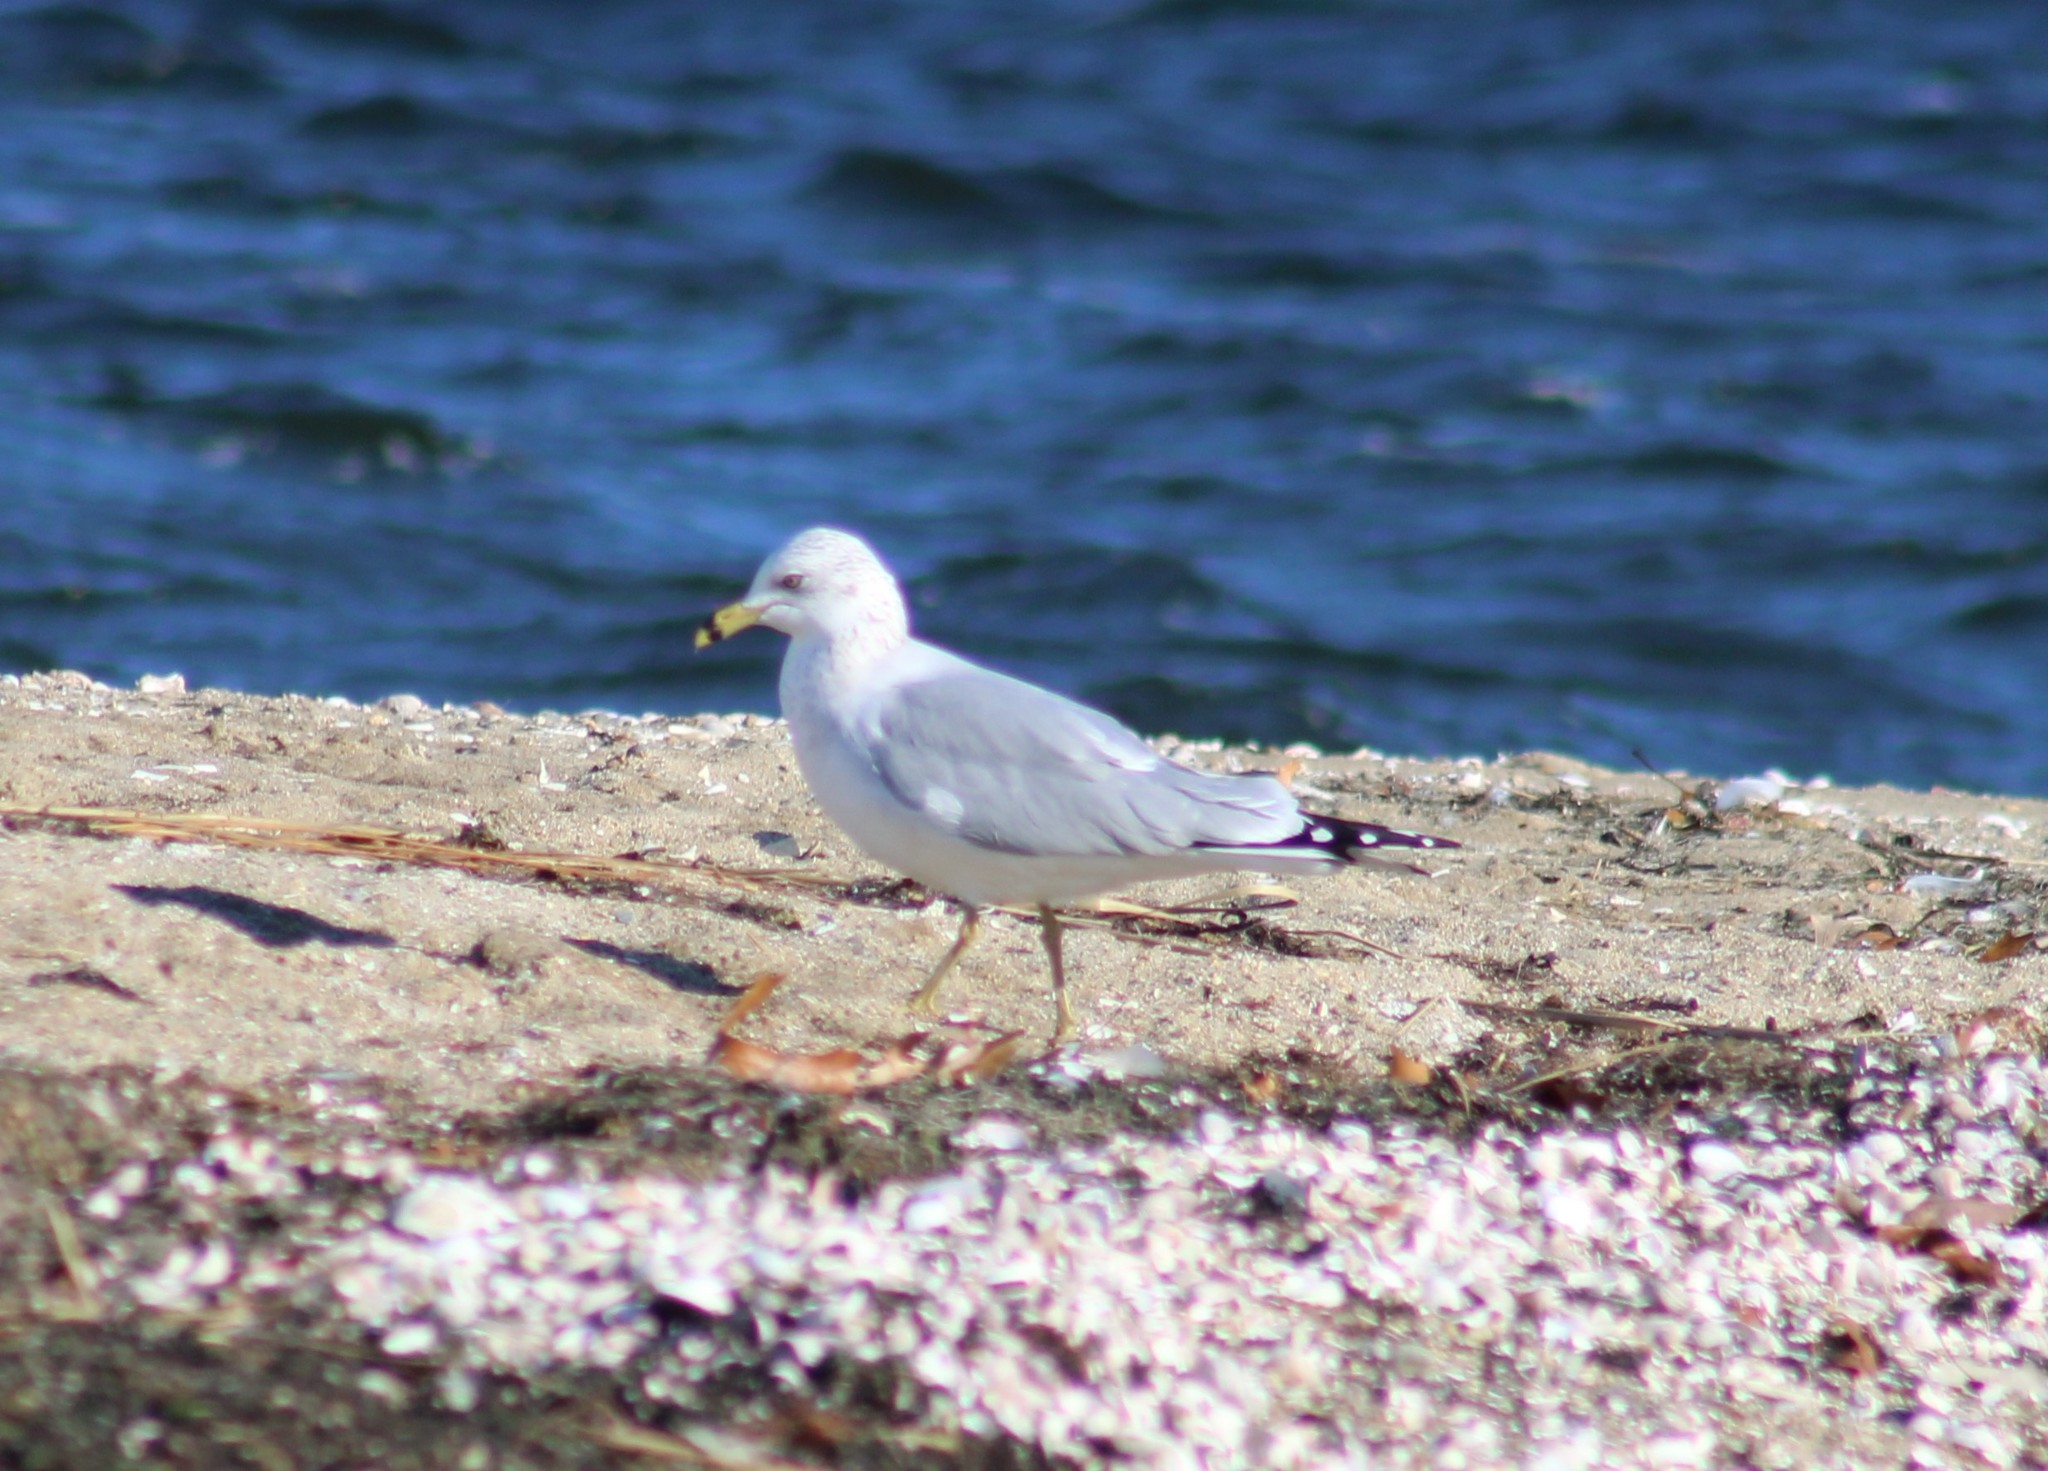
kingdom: Animalia
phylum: Chordata
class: Aves
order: Charadriiformes
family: Laridae
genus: Larus
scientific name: Larus delawarensis
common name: Ring-billed gull
